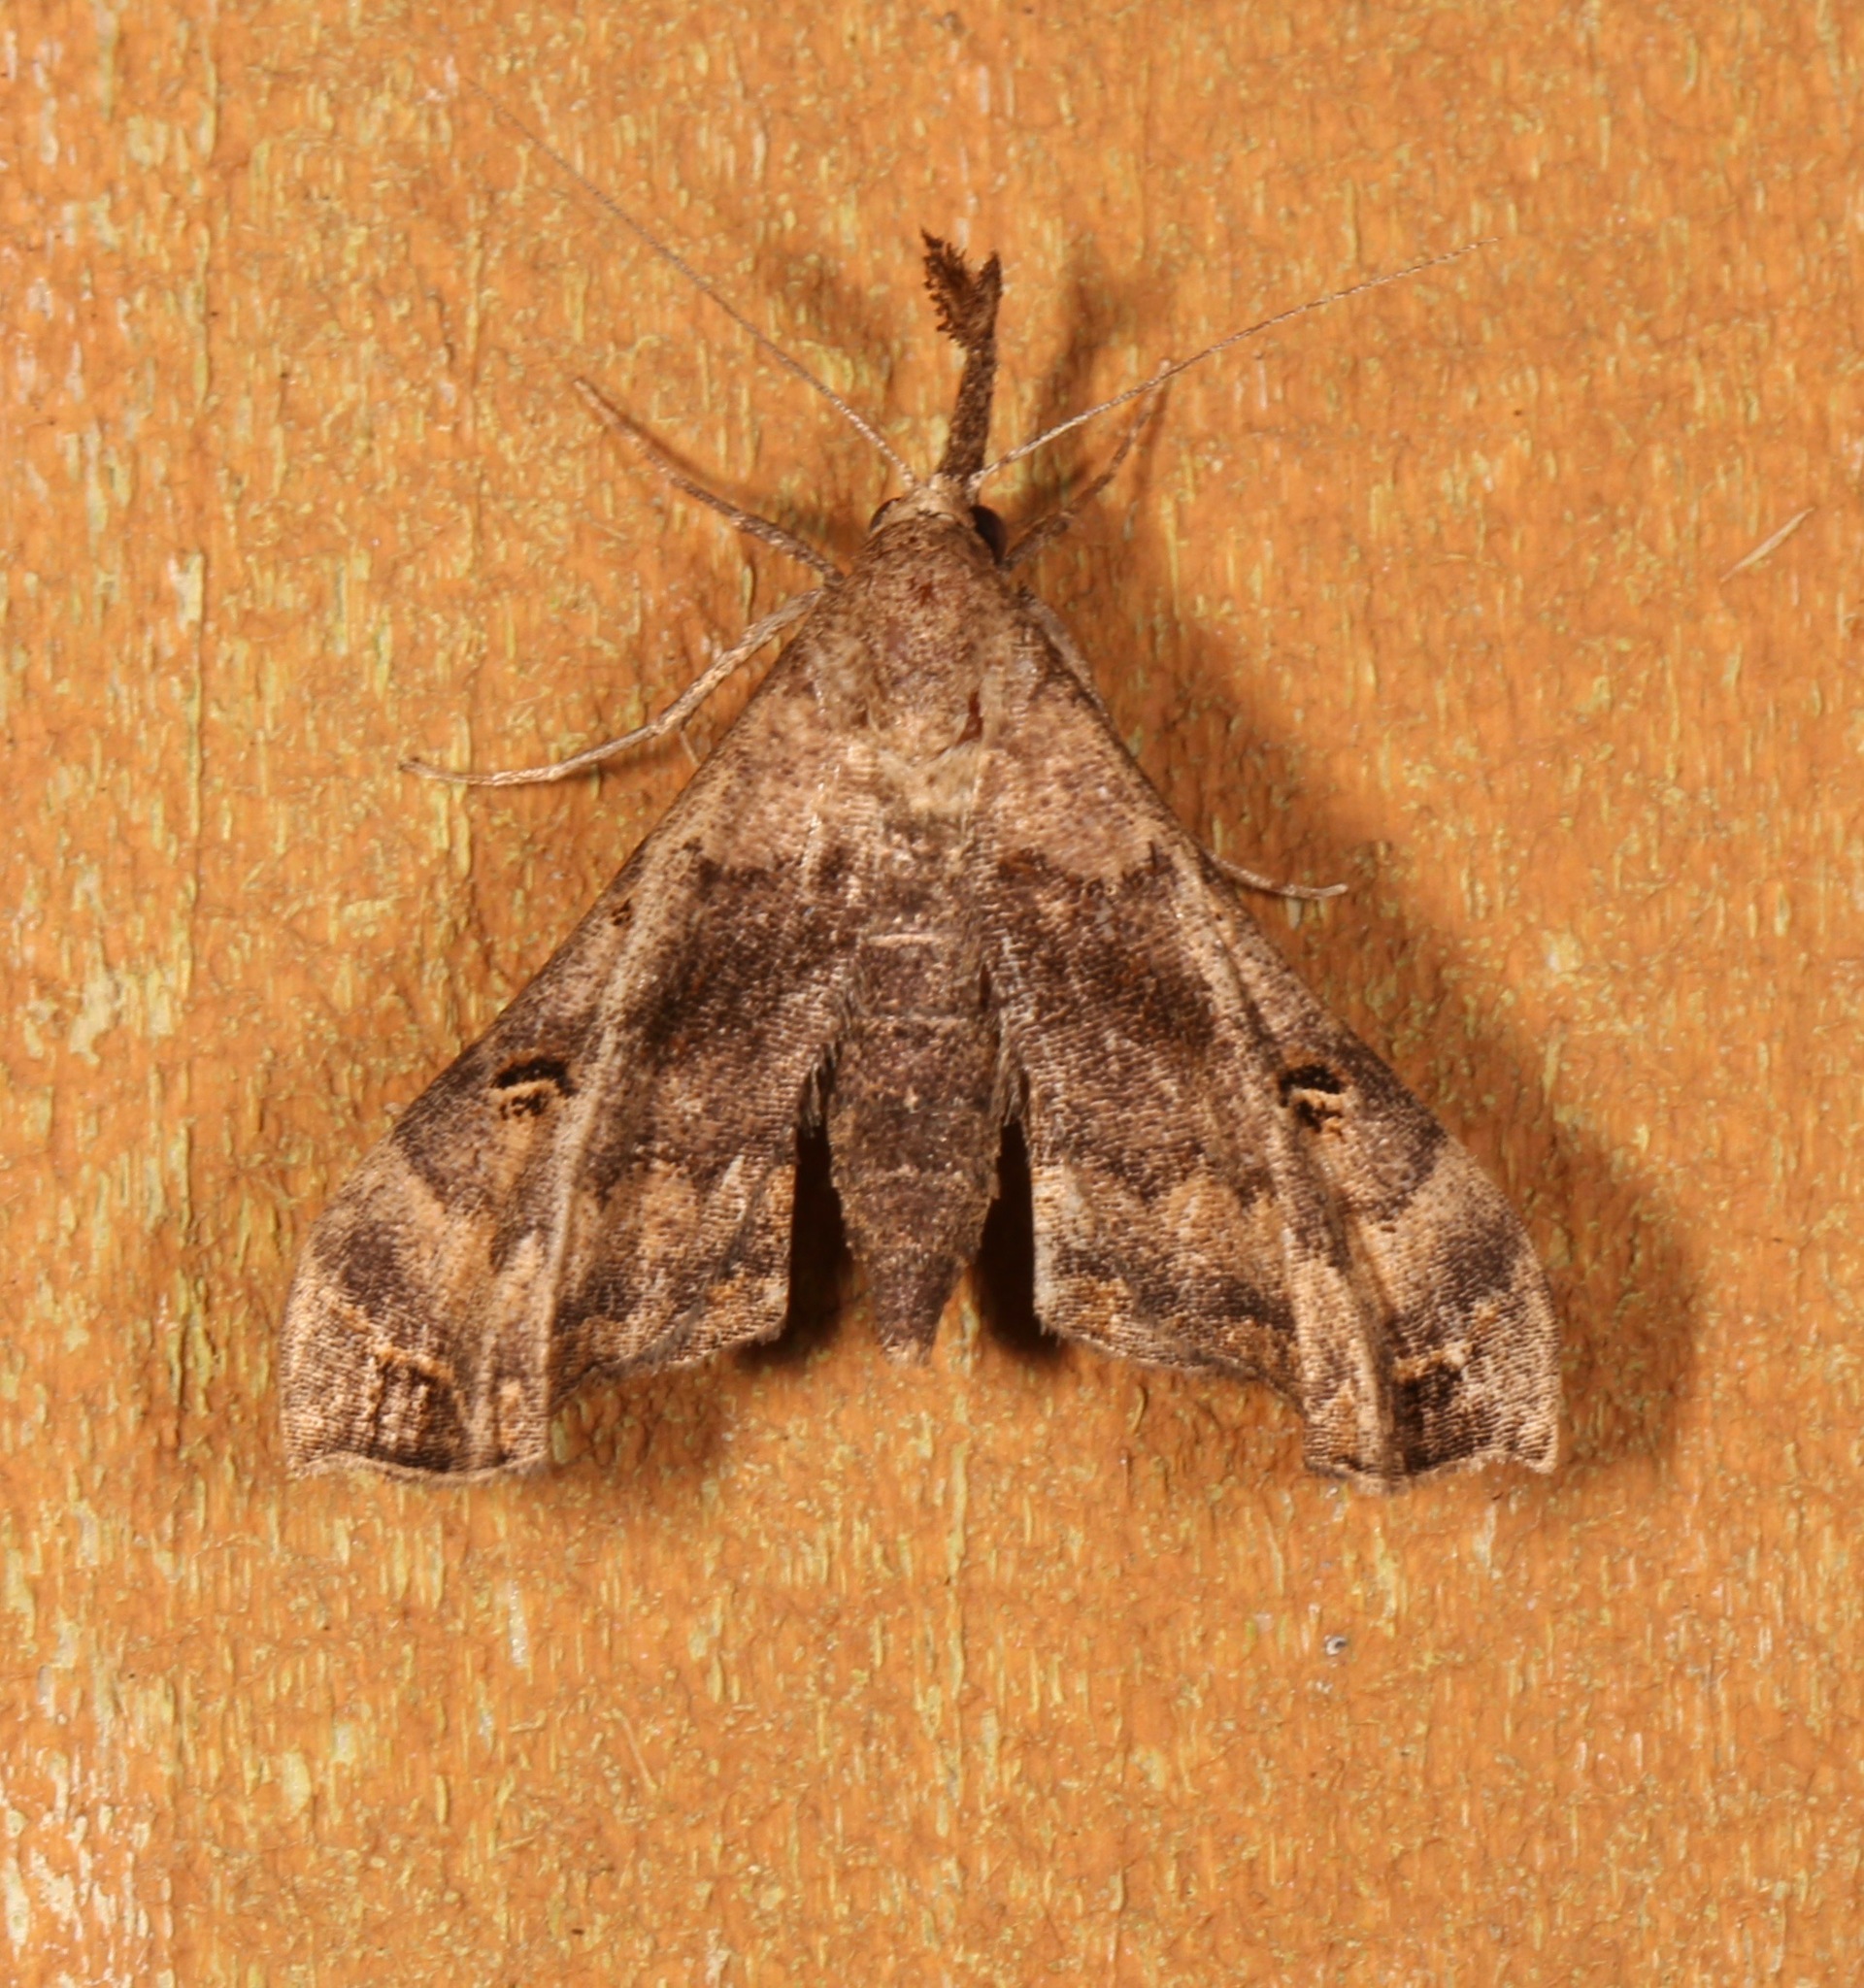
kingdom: Animalia
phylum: Arthropoda
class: Insecta
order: Lepidoptera
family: Erebidae
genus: Palthis
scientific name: Palthis asopialis
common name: Faint-spotted palthis moth
